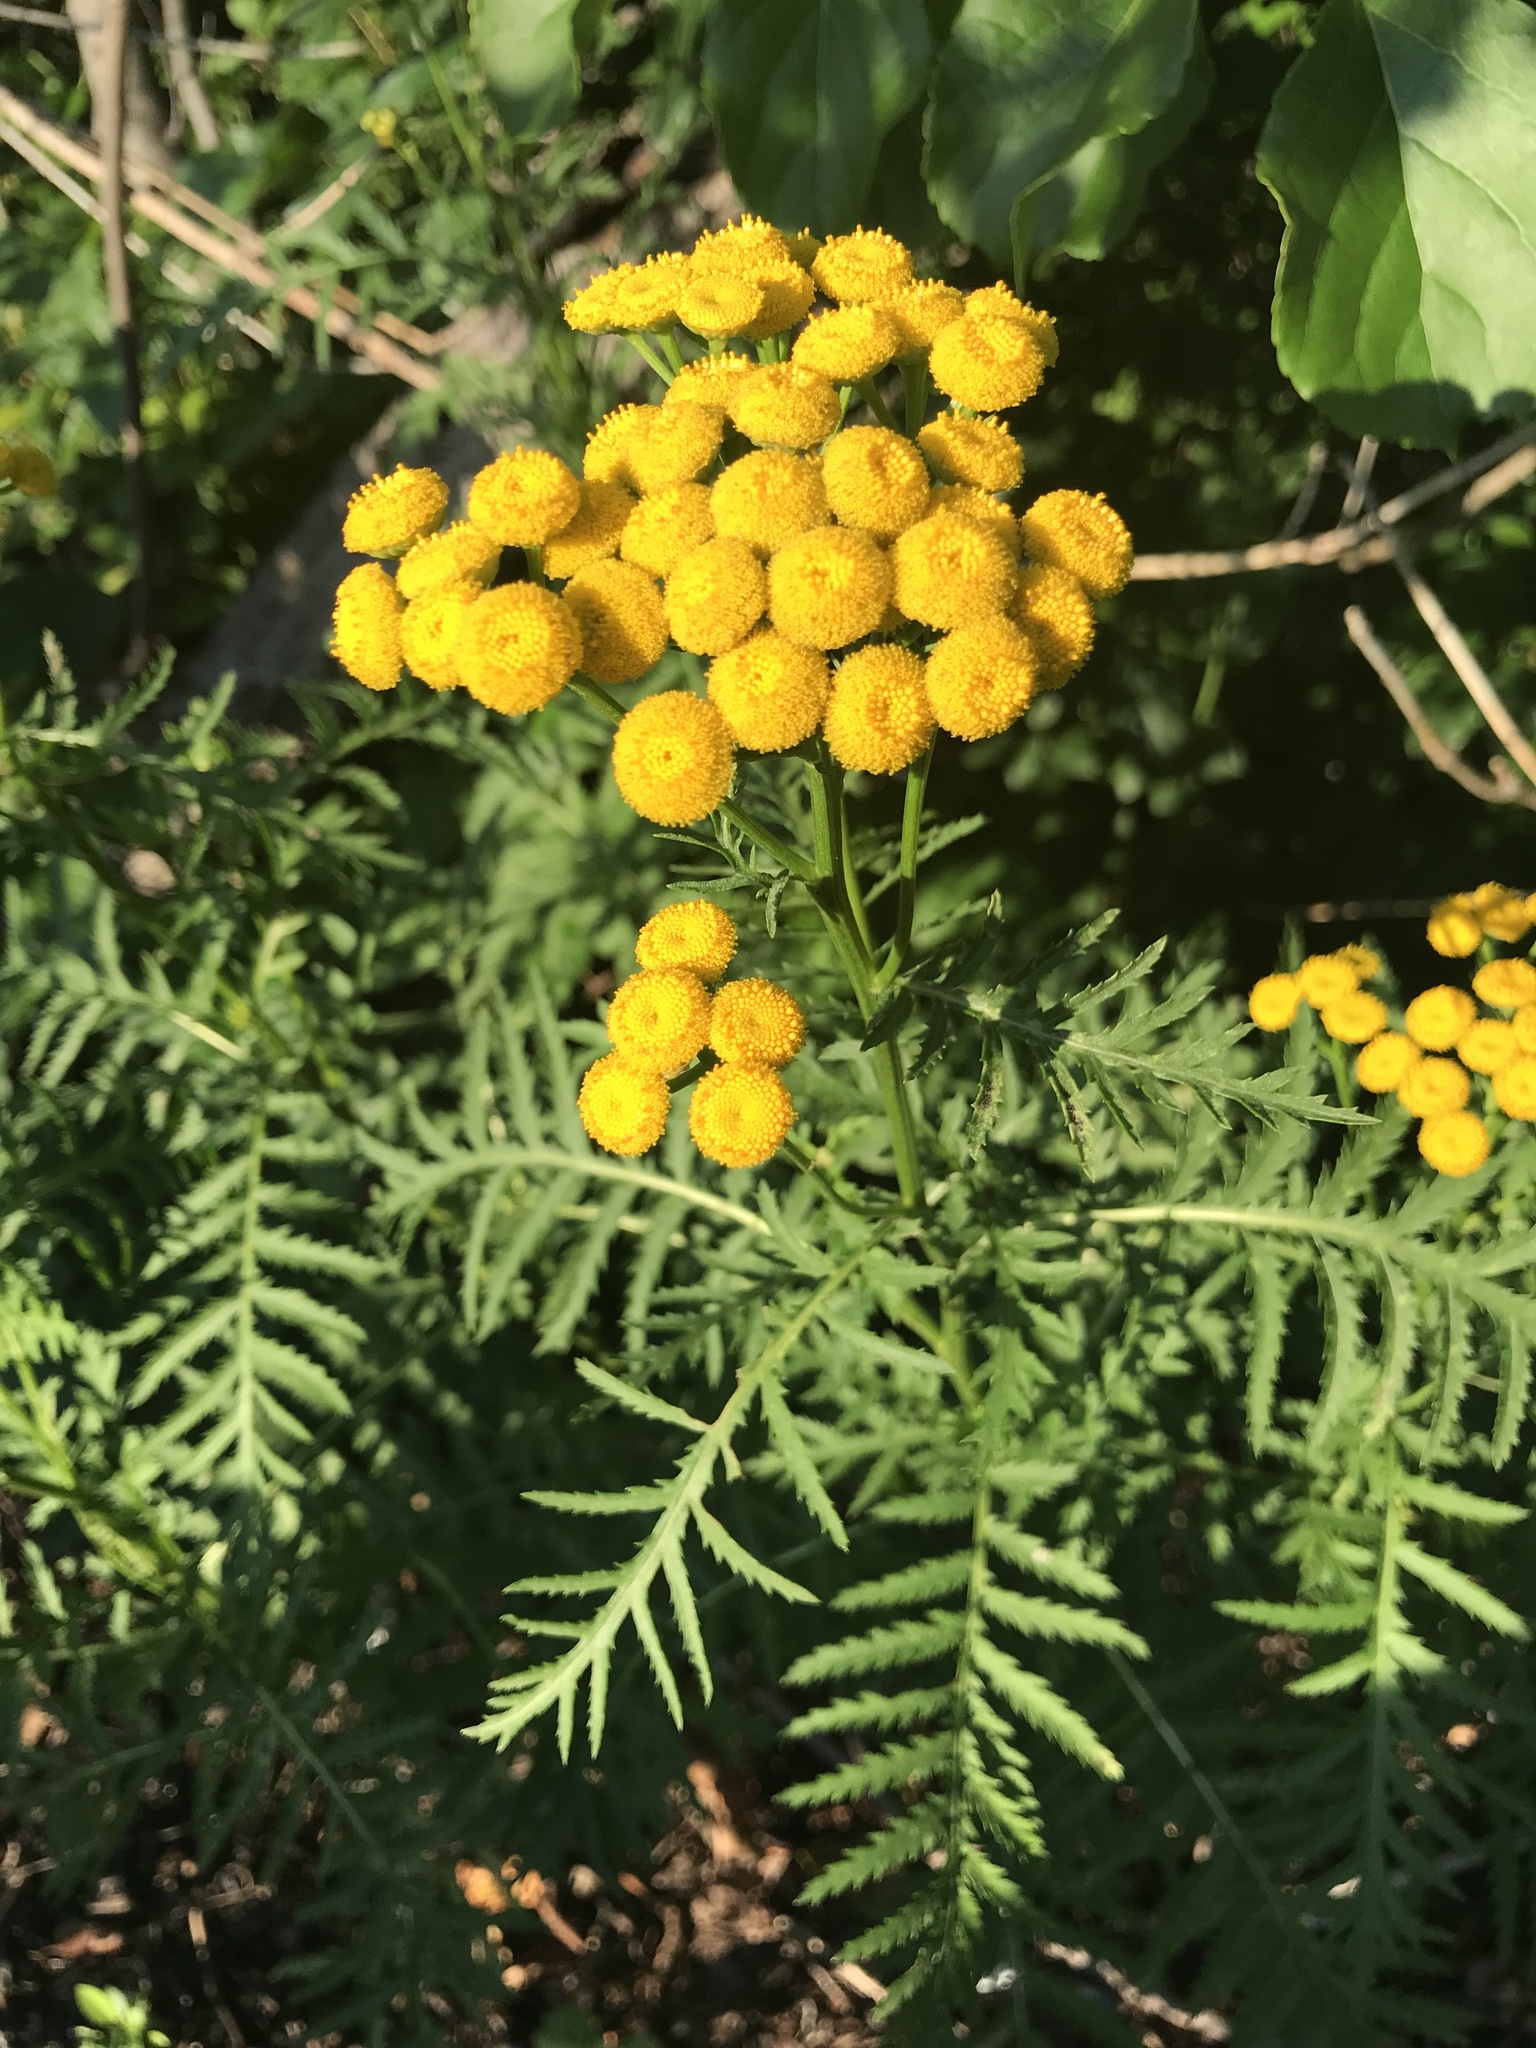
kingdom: Plantae
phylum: Tracheophyta
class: Magnoliopsida
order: Asterales
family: Asteraceae
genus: Tanacetum
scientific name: Tanacetum vulgare
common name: Common tansy
